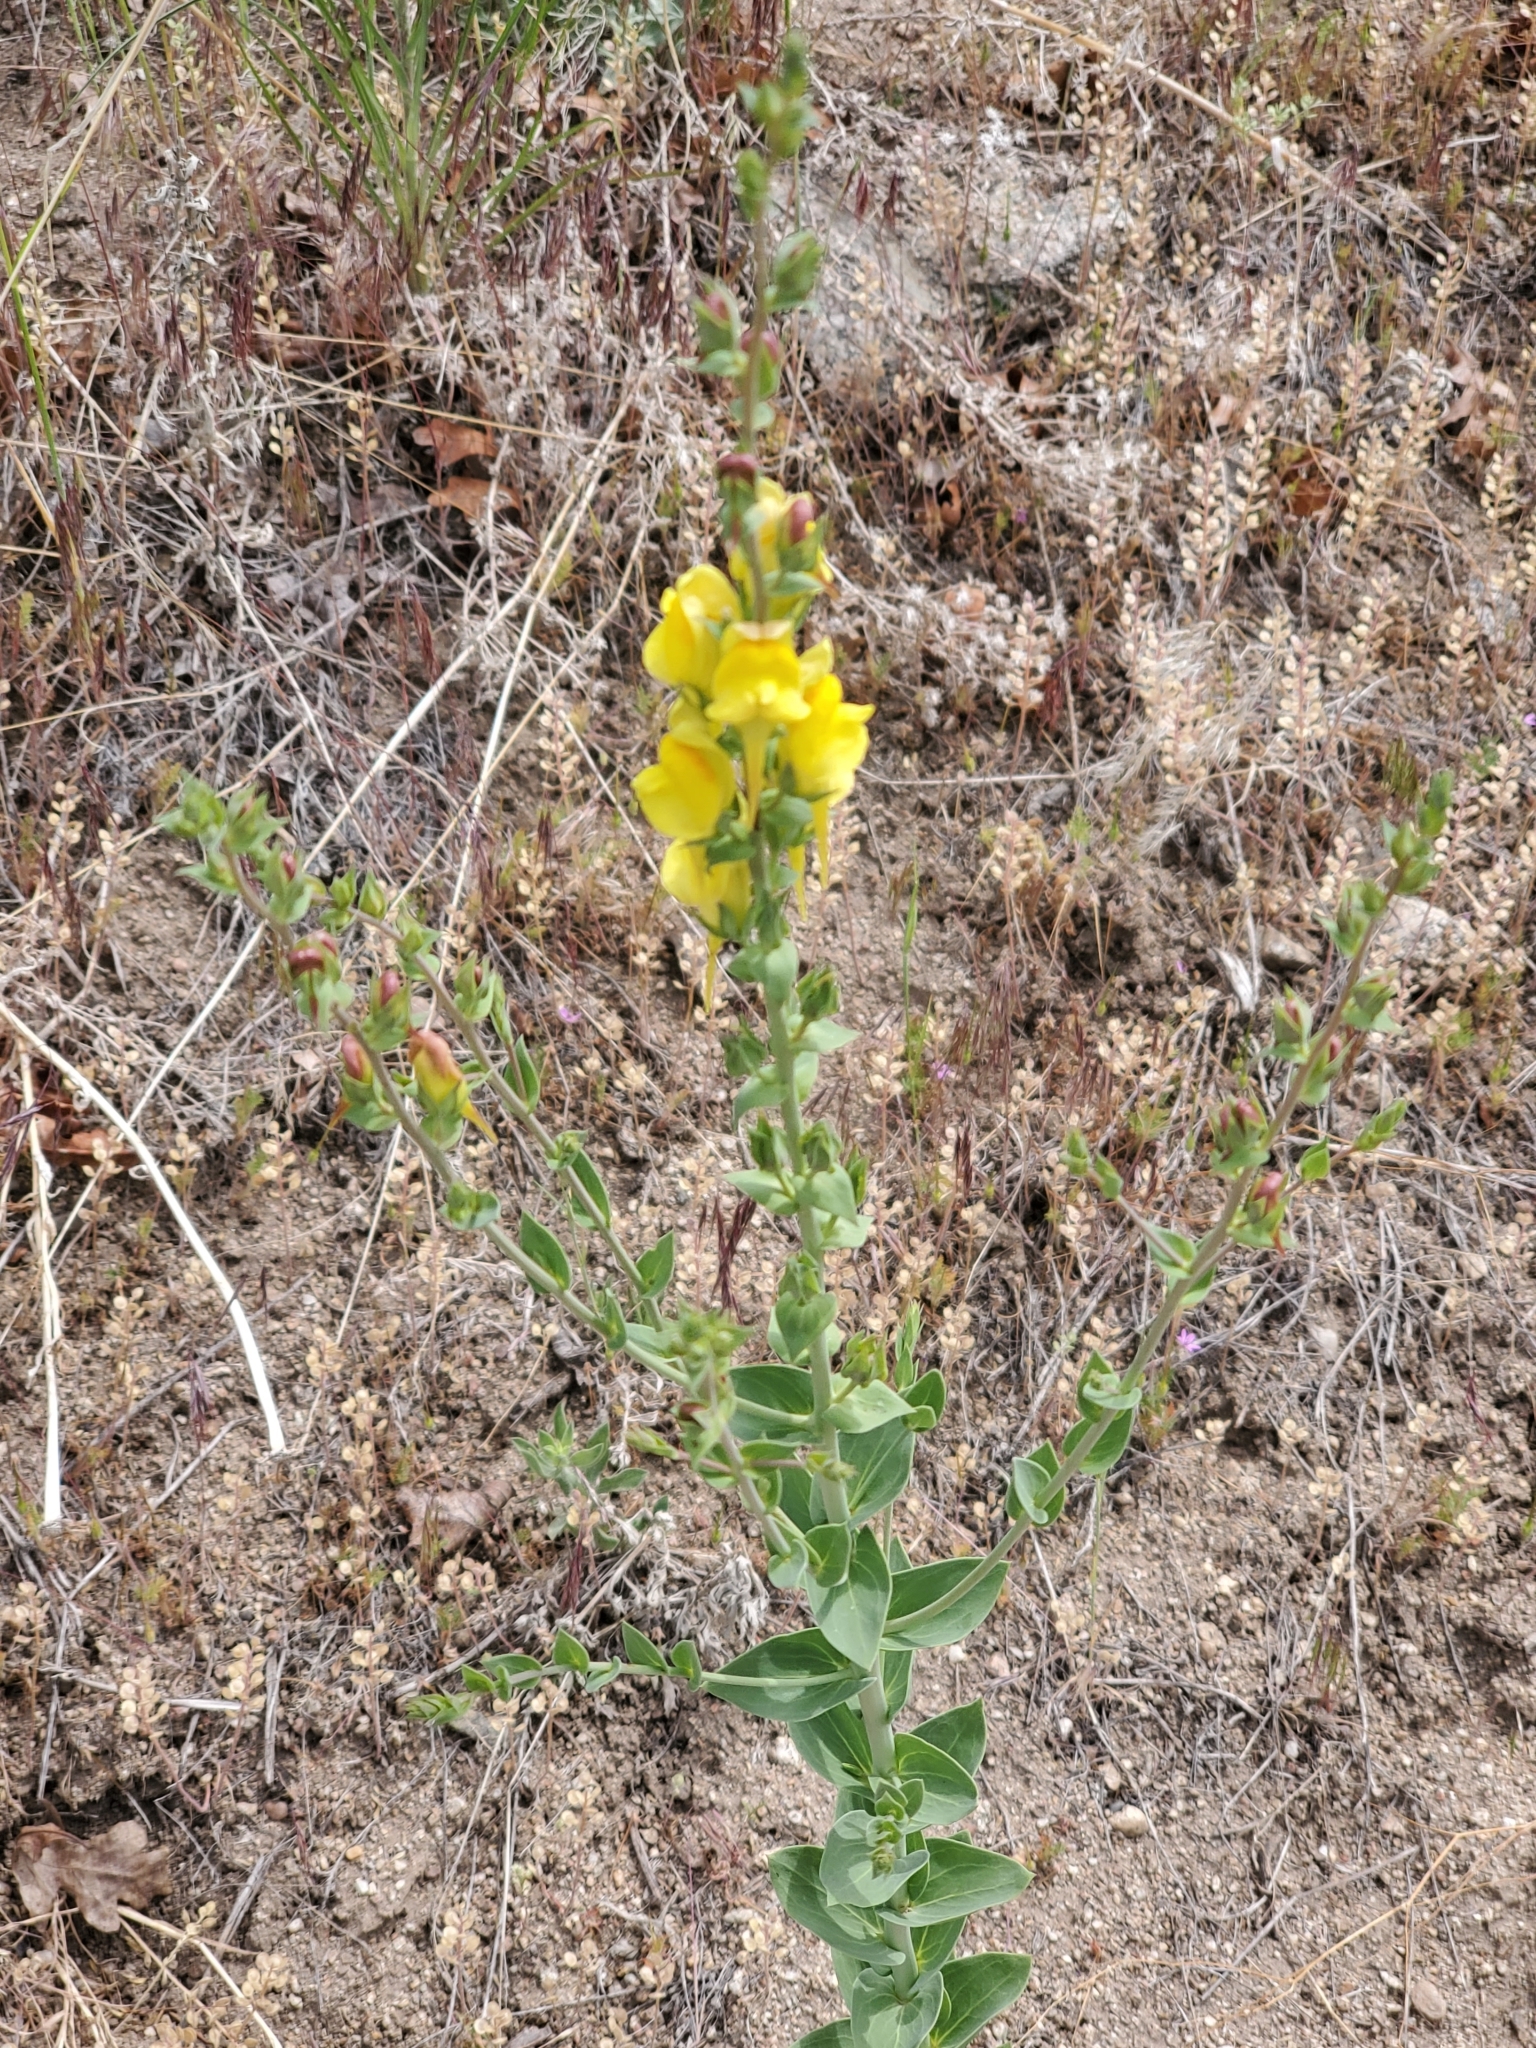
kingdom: Plantae
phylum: Tracheophyta
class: Magnoliopsida
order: Lamiales
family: Plantaginaceae
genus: Linaria
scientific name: Linaria dalmatica
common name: Dalmatian toadflax
